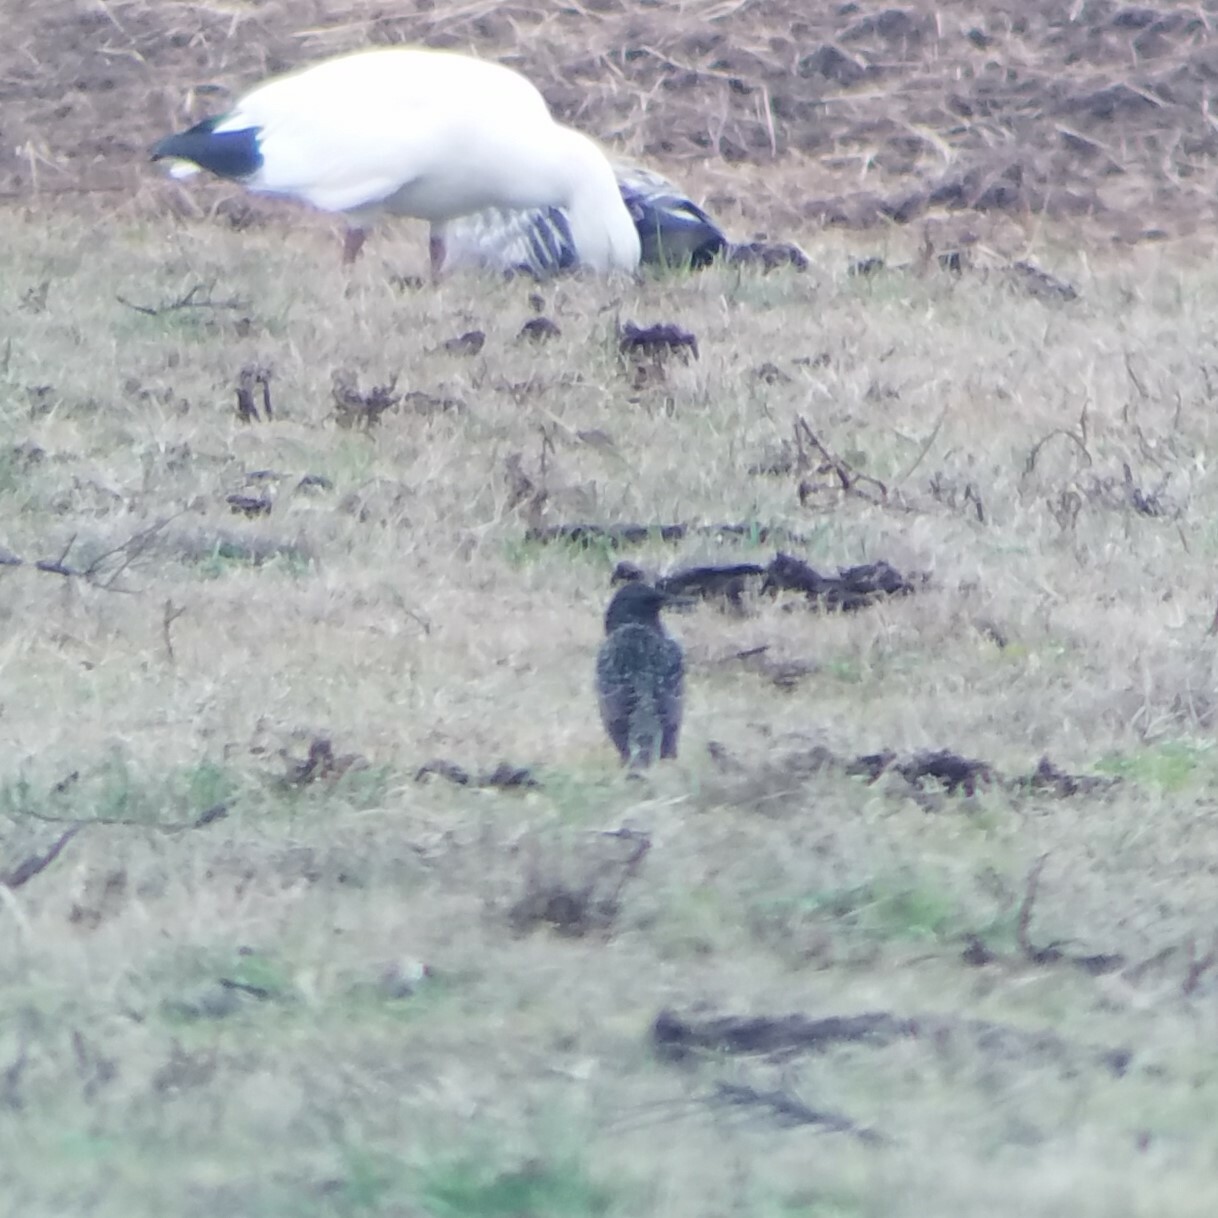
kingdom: Animalia
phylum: Chordata
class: Aves
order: Passeriformes
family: Sturnidae
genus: Sturnus
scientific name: Sturnus vulgaris
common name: Common starling
